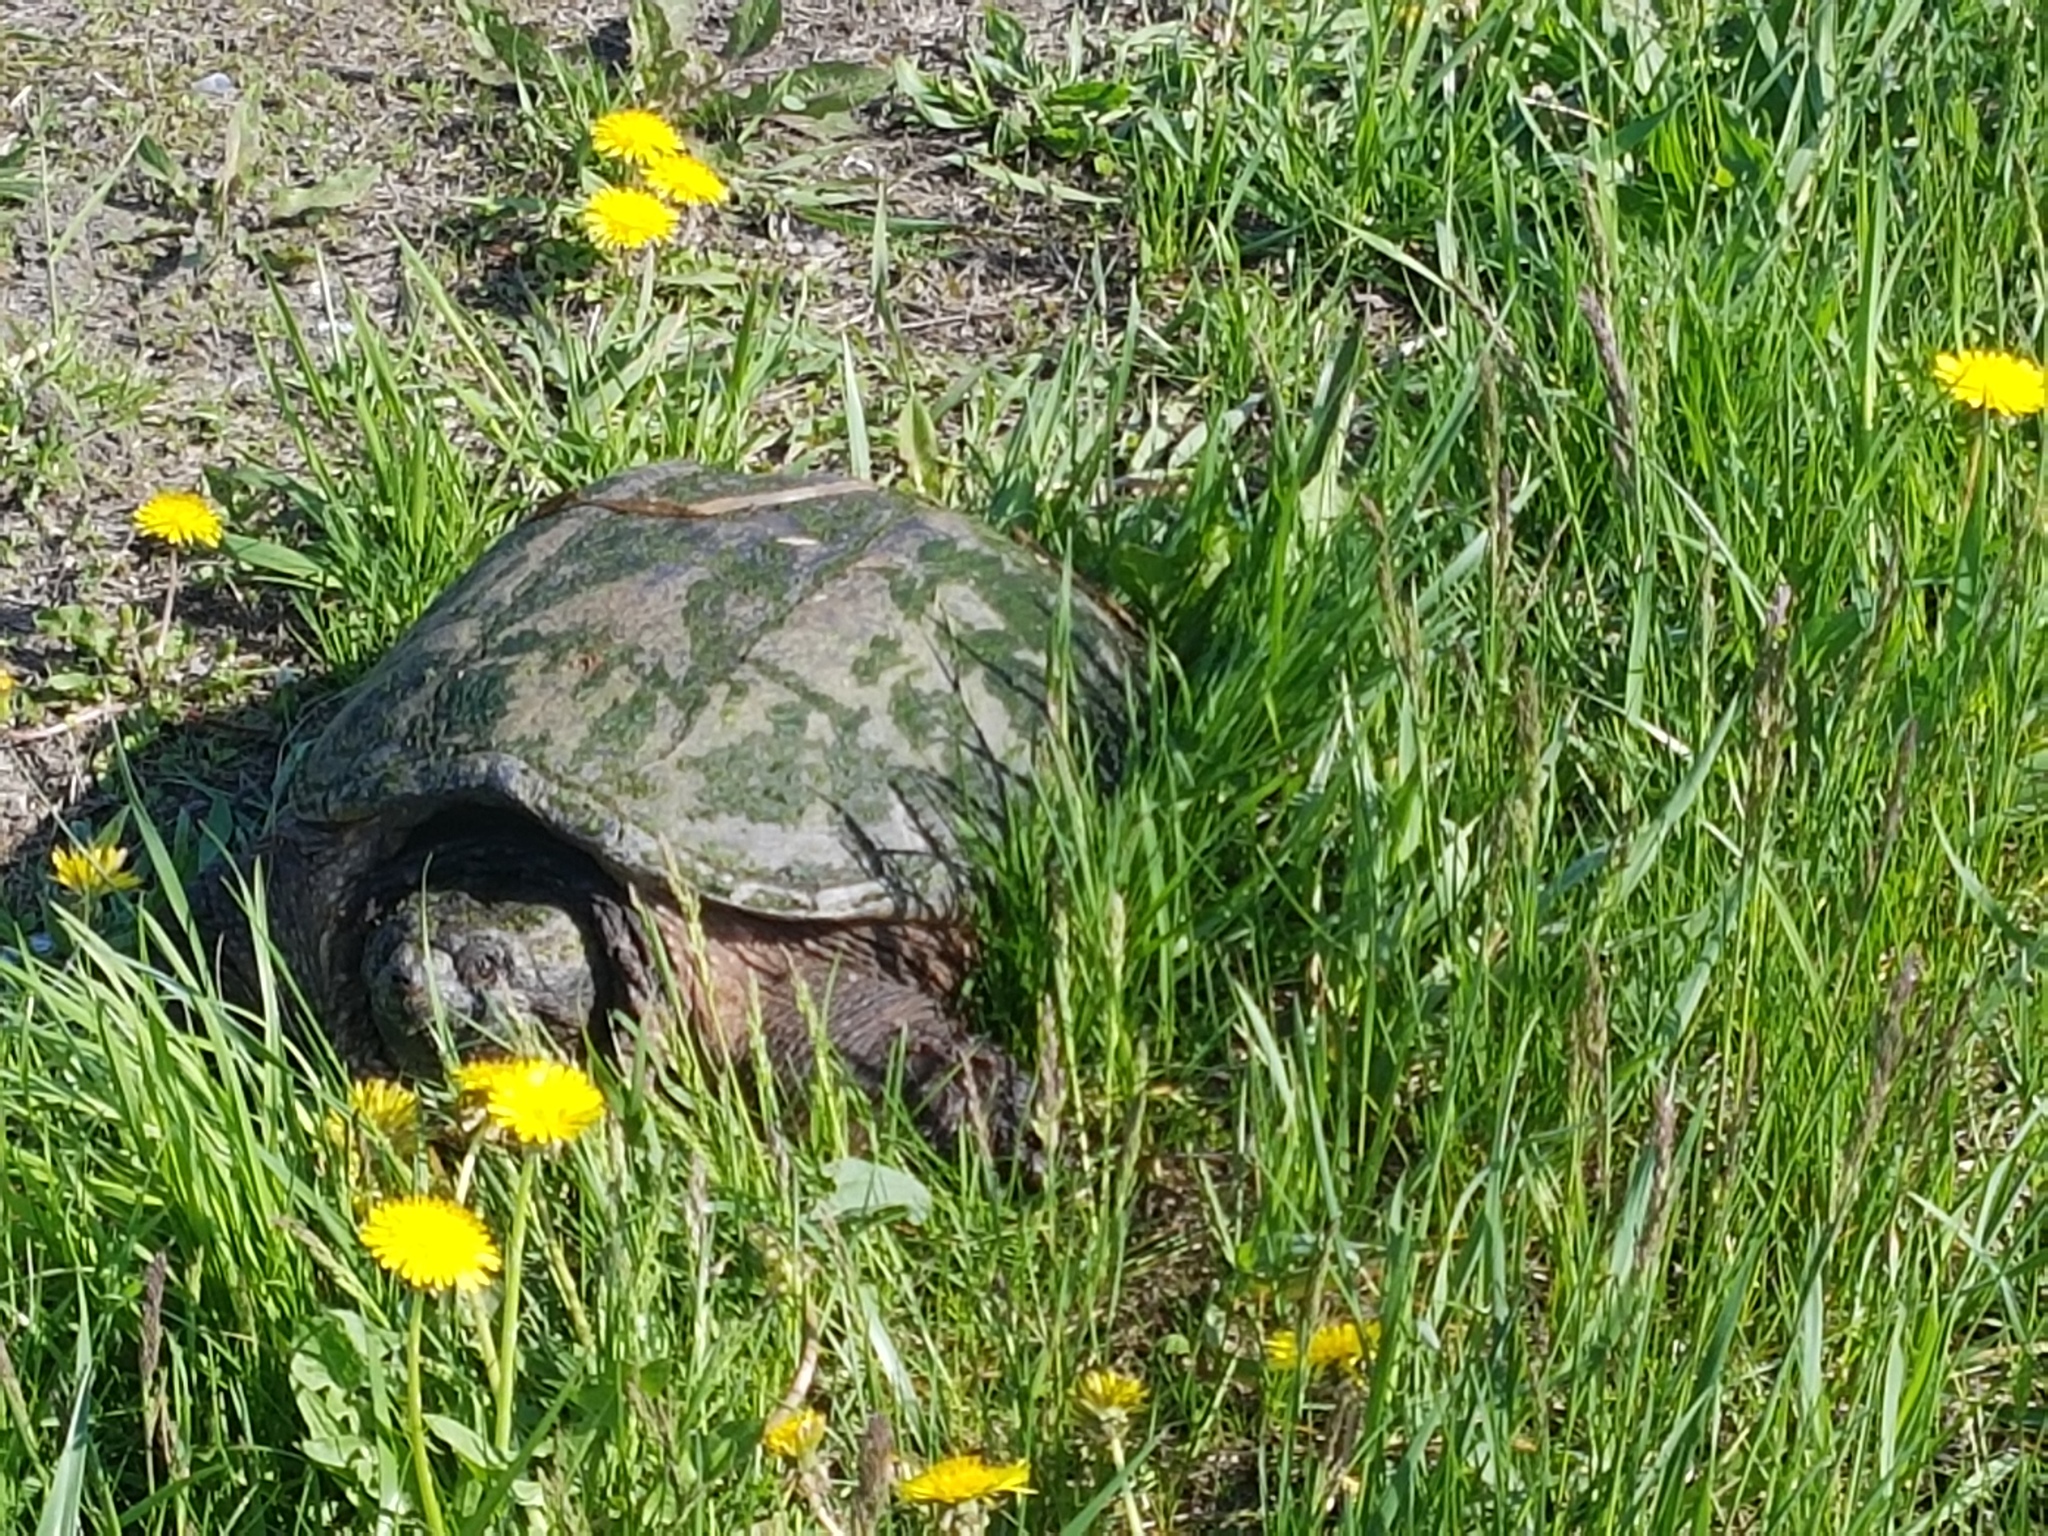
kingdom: Animalia
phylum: Chordata
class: Testudines
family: Chelydridae
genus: Chelydra
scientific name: Chelydra serpentina
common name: Common snapping turtle
